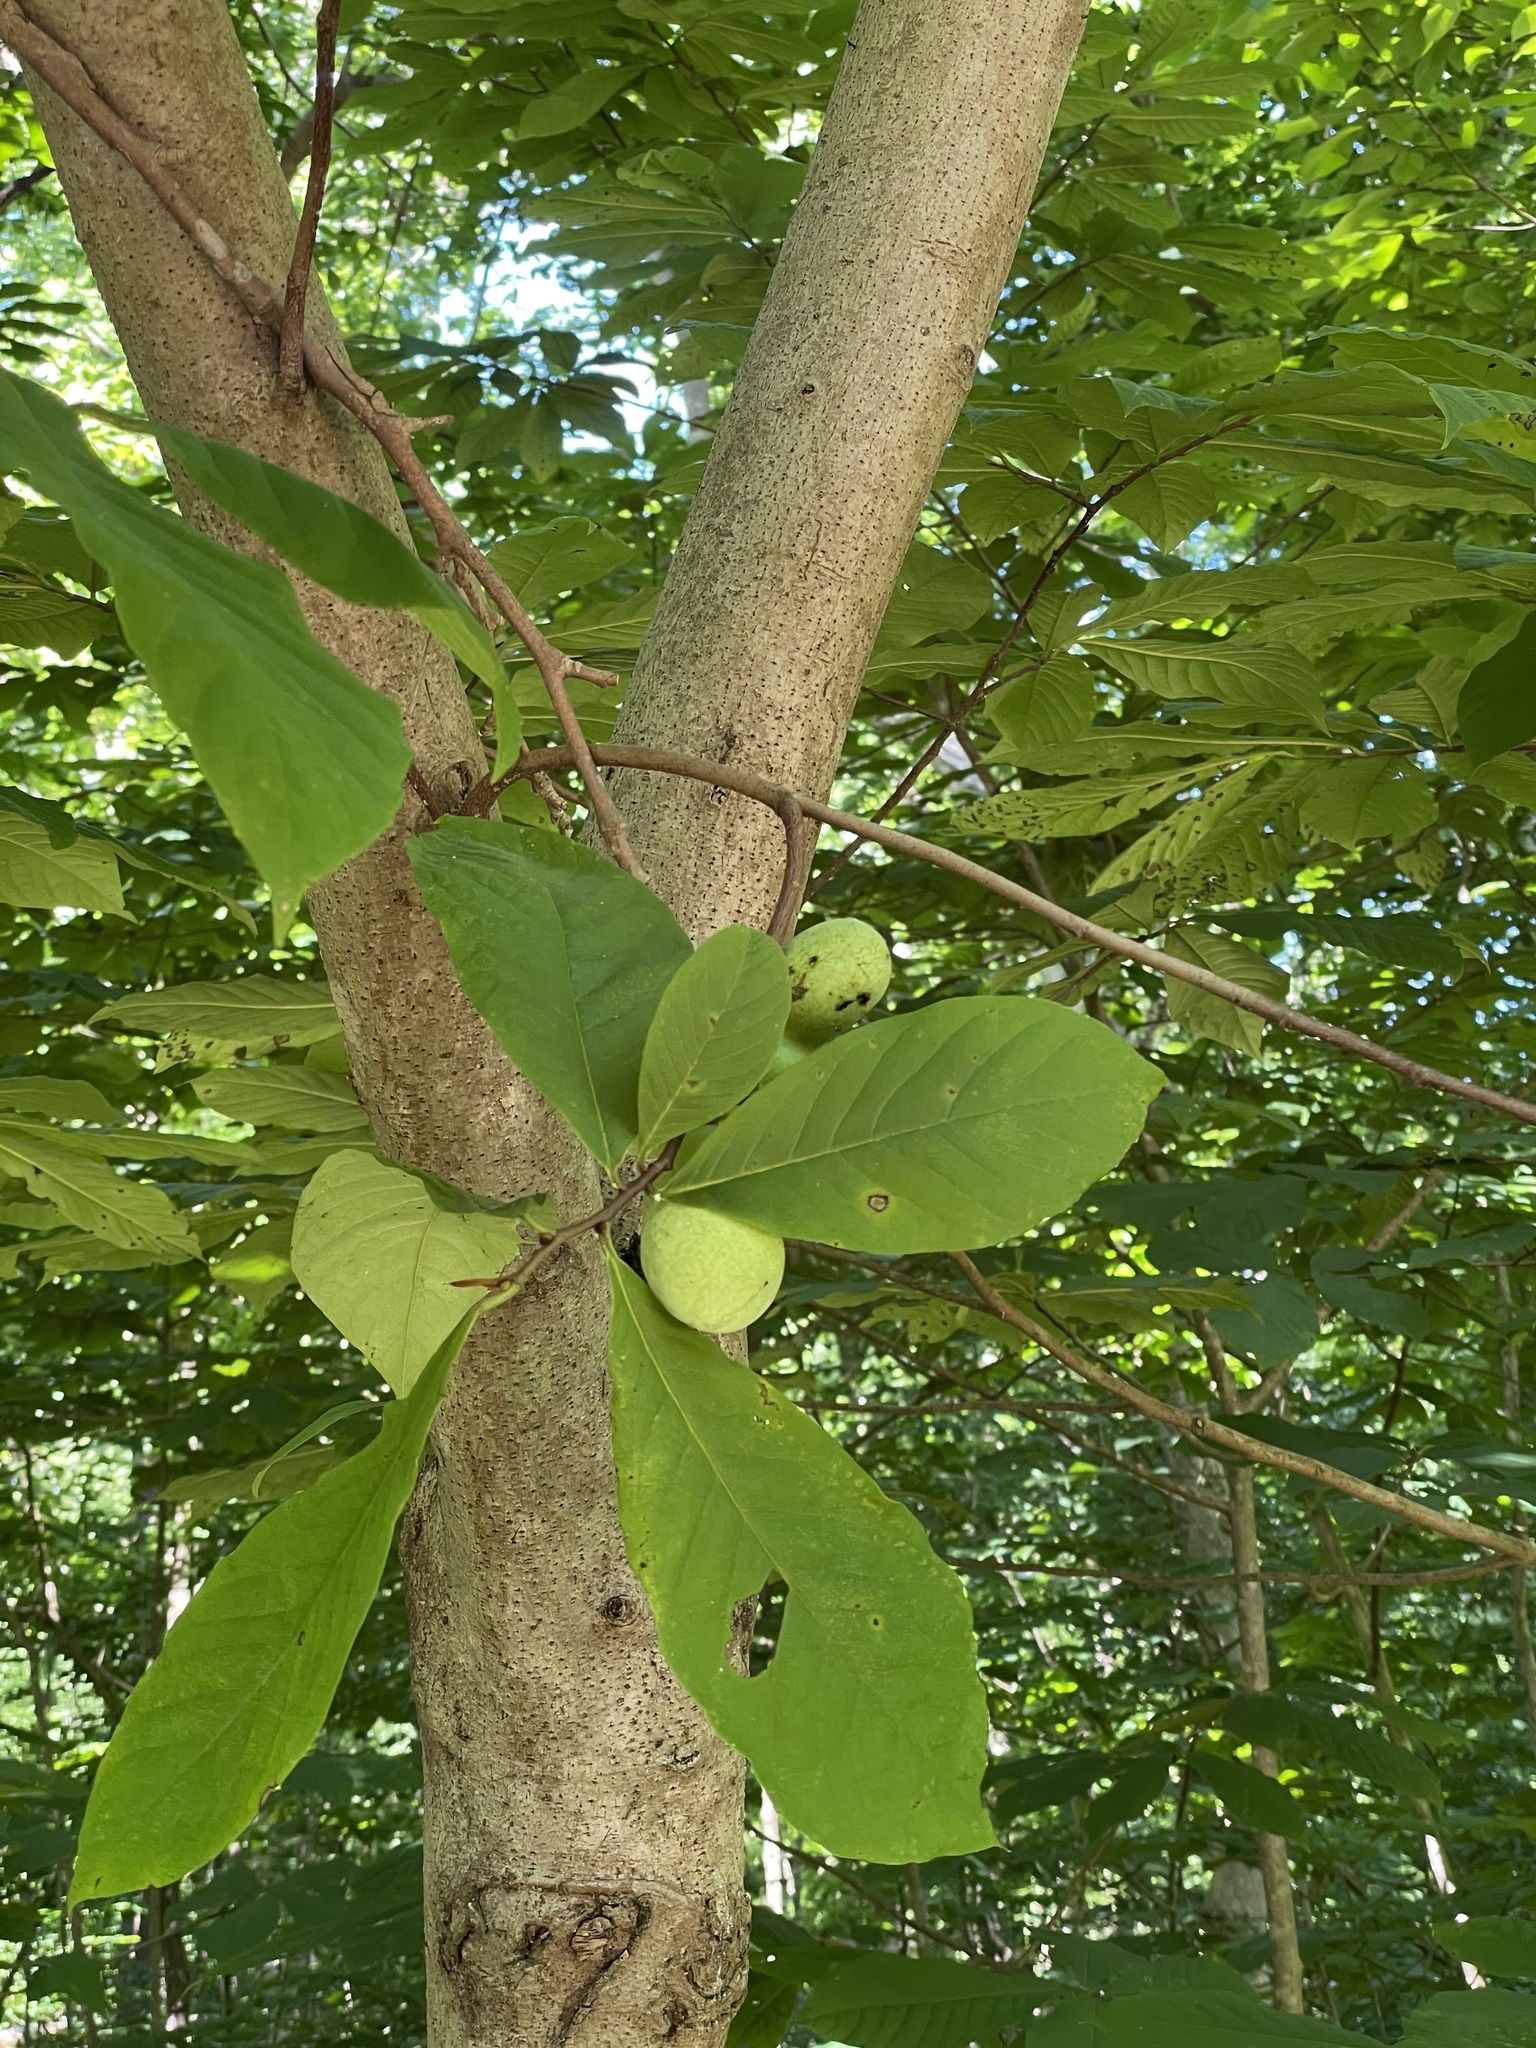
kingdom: Plantae
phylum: Tracheophyta
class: Magnoliopsida
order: Magnoliales
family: Annonaceae
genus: Asimina
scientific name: Asimina triloba
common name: Dog-banana
